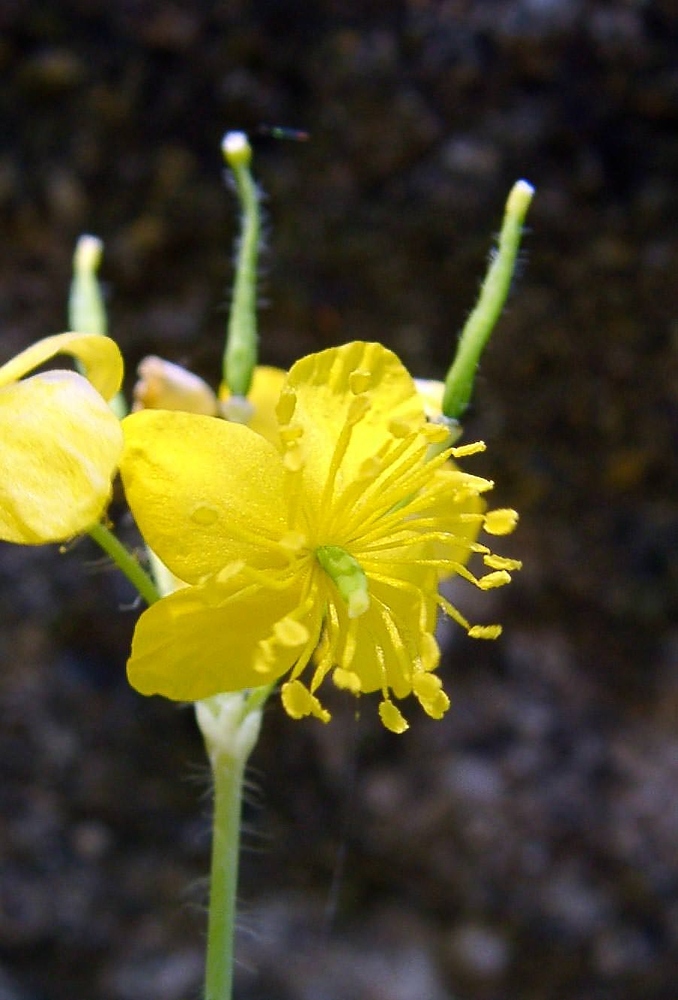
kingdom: Plantae
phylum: Tracheophyta
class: Magnoliopsida
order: Ranunculales
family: Papaveraceae
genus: Chelidonium
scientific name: Chelidonium majus
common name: Greater celandine
